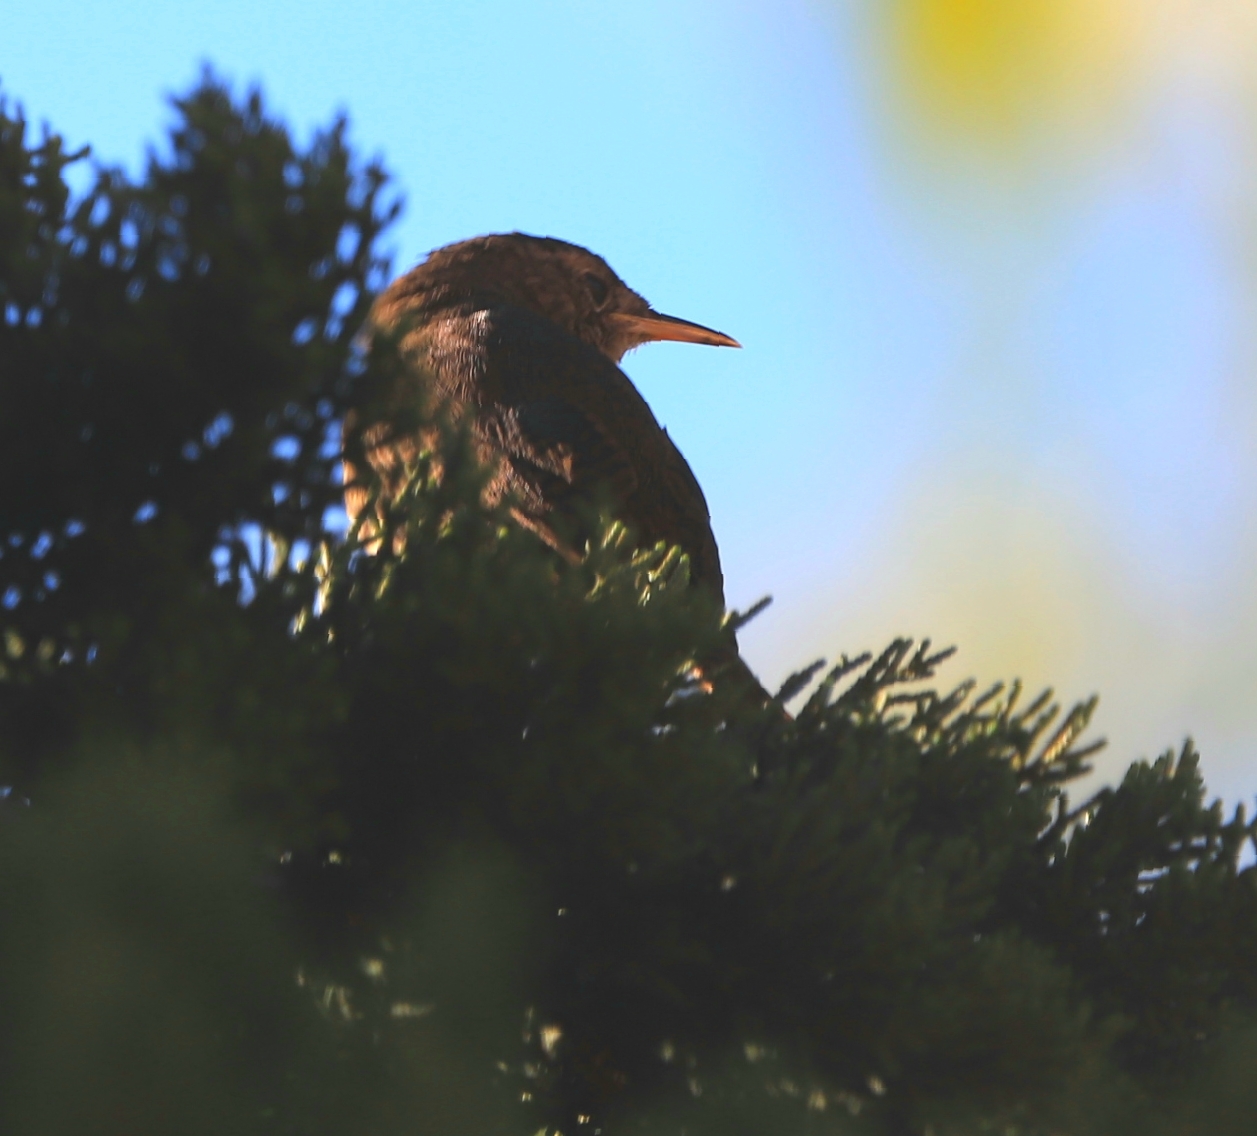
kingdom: Animalia
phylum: Chordata
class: Aves
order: Passeriformes
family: Troglodytidae
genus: Troglodytes
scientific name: Troglodytes aedon
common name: House wren
